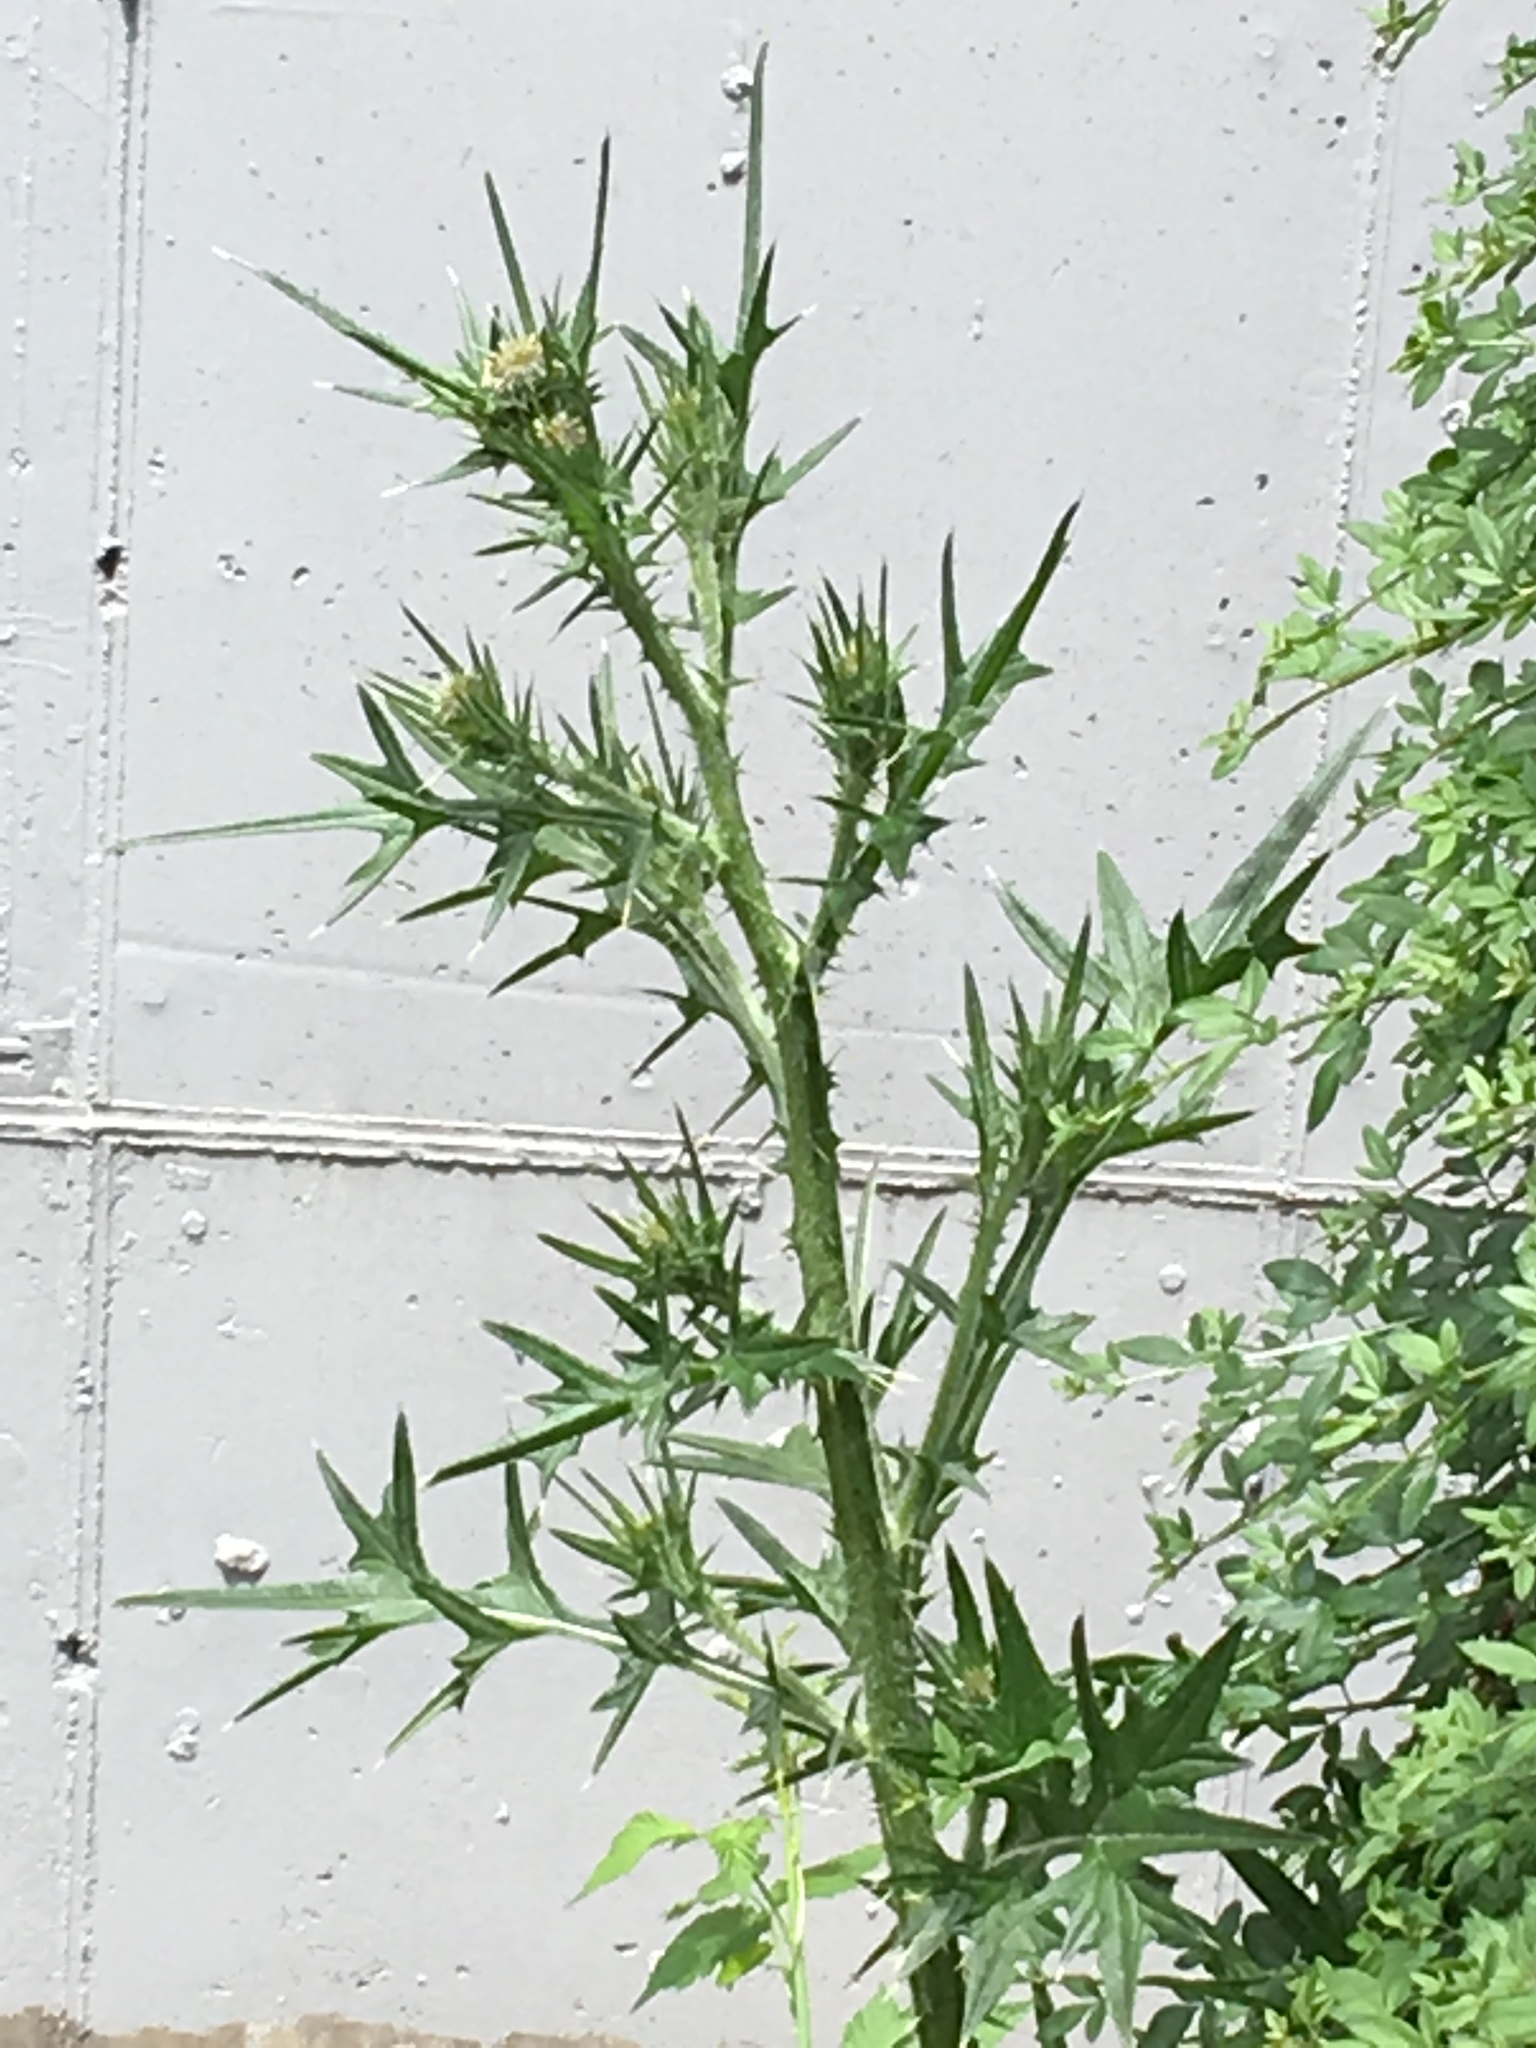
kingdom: Plantae
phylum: Tracheophyta
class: Magnoliopsida
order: Asterales
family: Asteraceae
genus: Cirsium
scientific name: Cirsium vulgare
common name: Bull thistle
